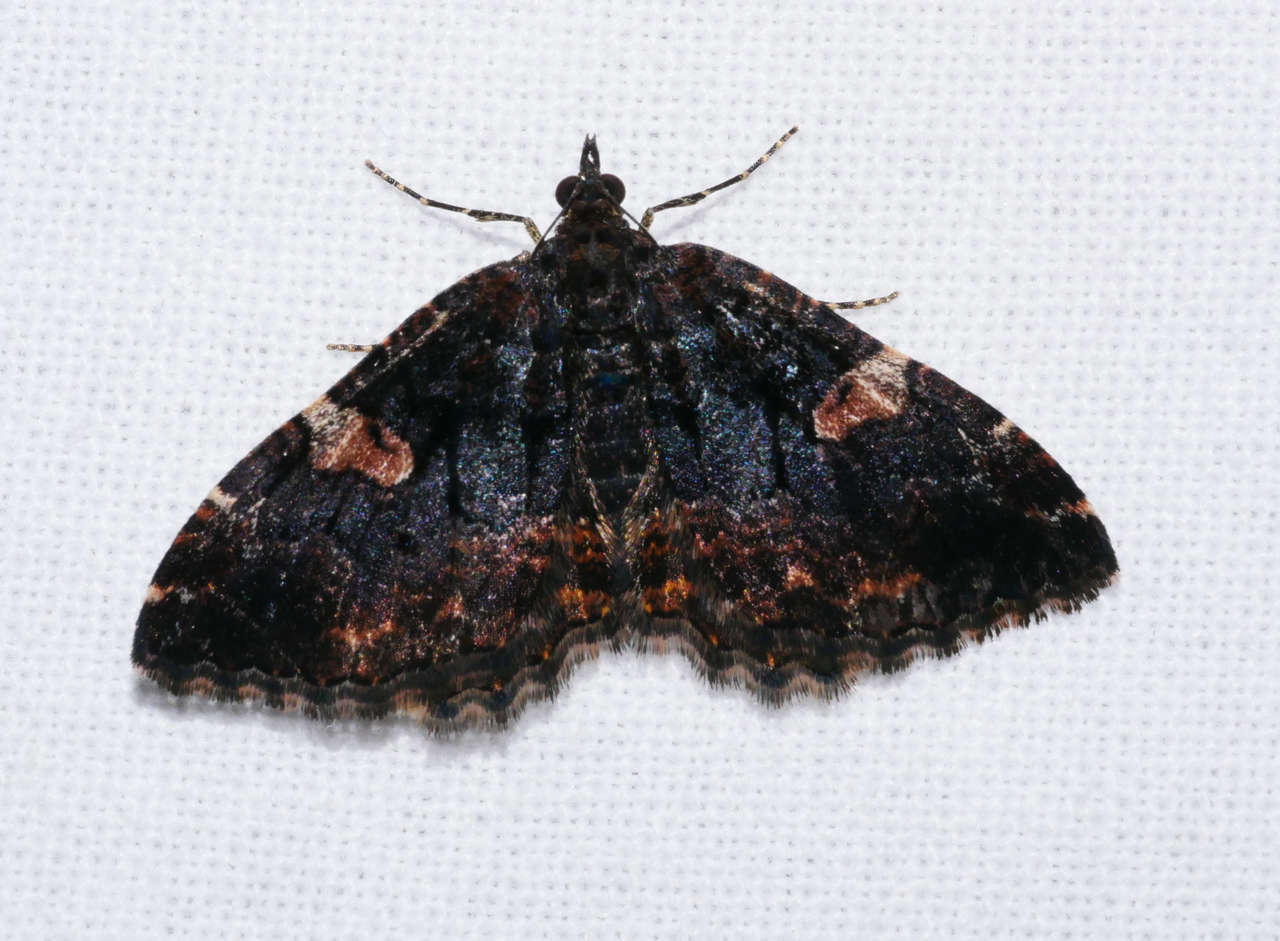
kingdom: Animalia
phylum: Arthropoda
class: Insecta
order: Lepidoptera
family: Geometridae
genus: Chrysolarentia
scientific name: Chrysolarentia perialla
